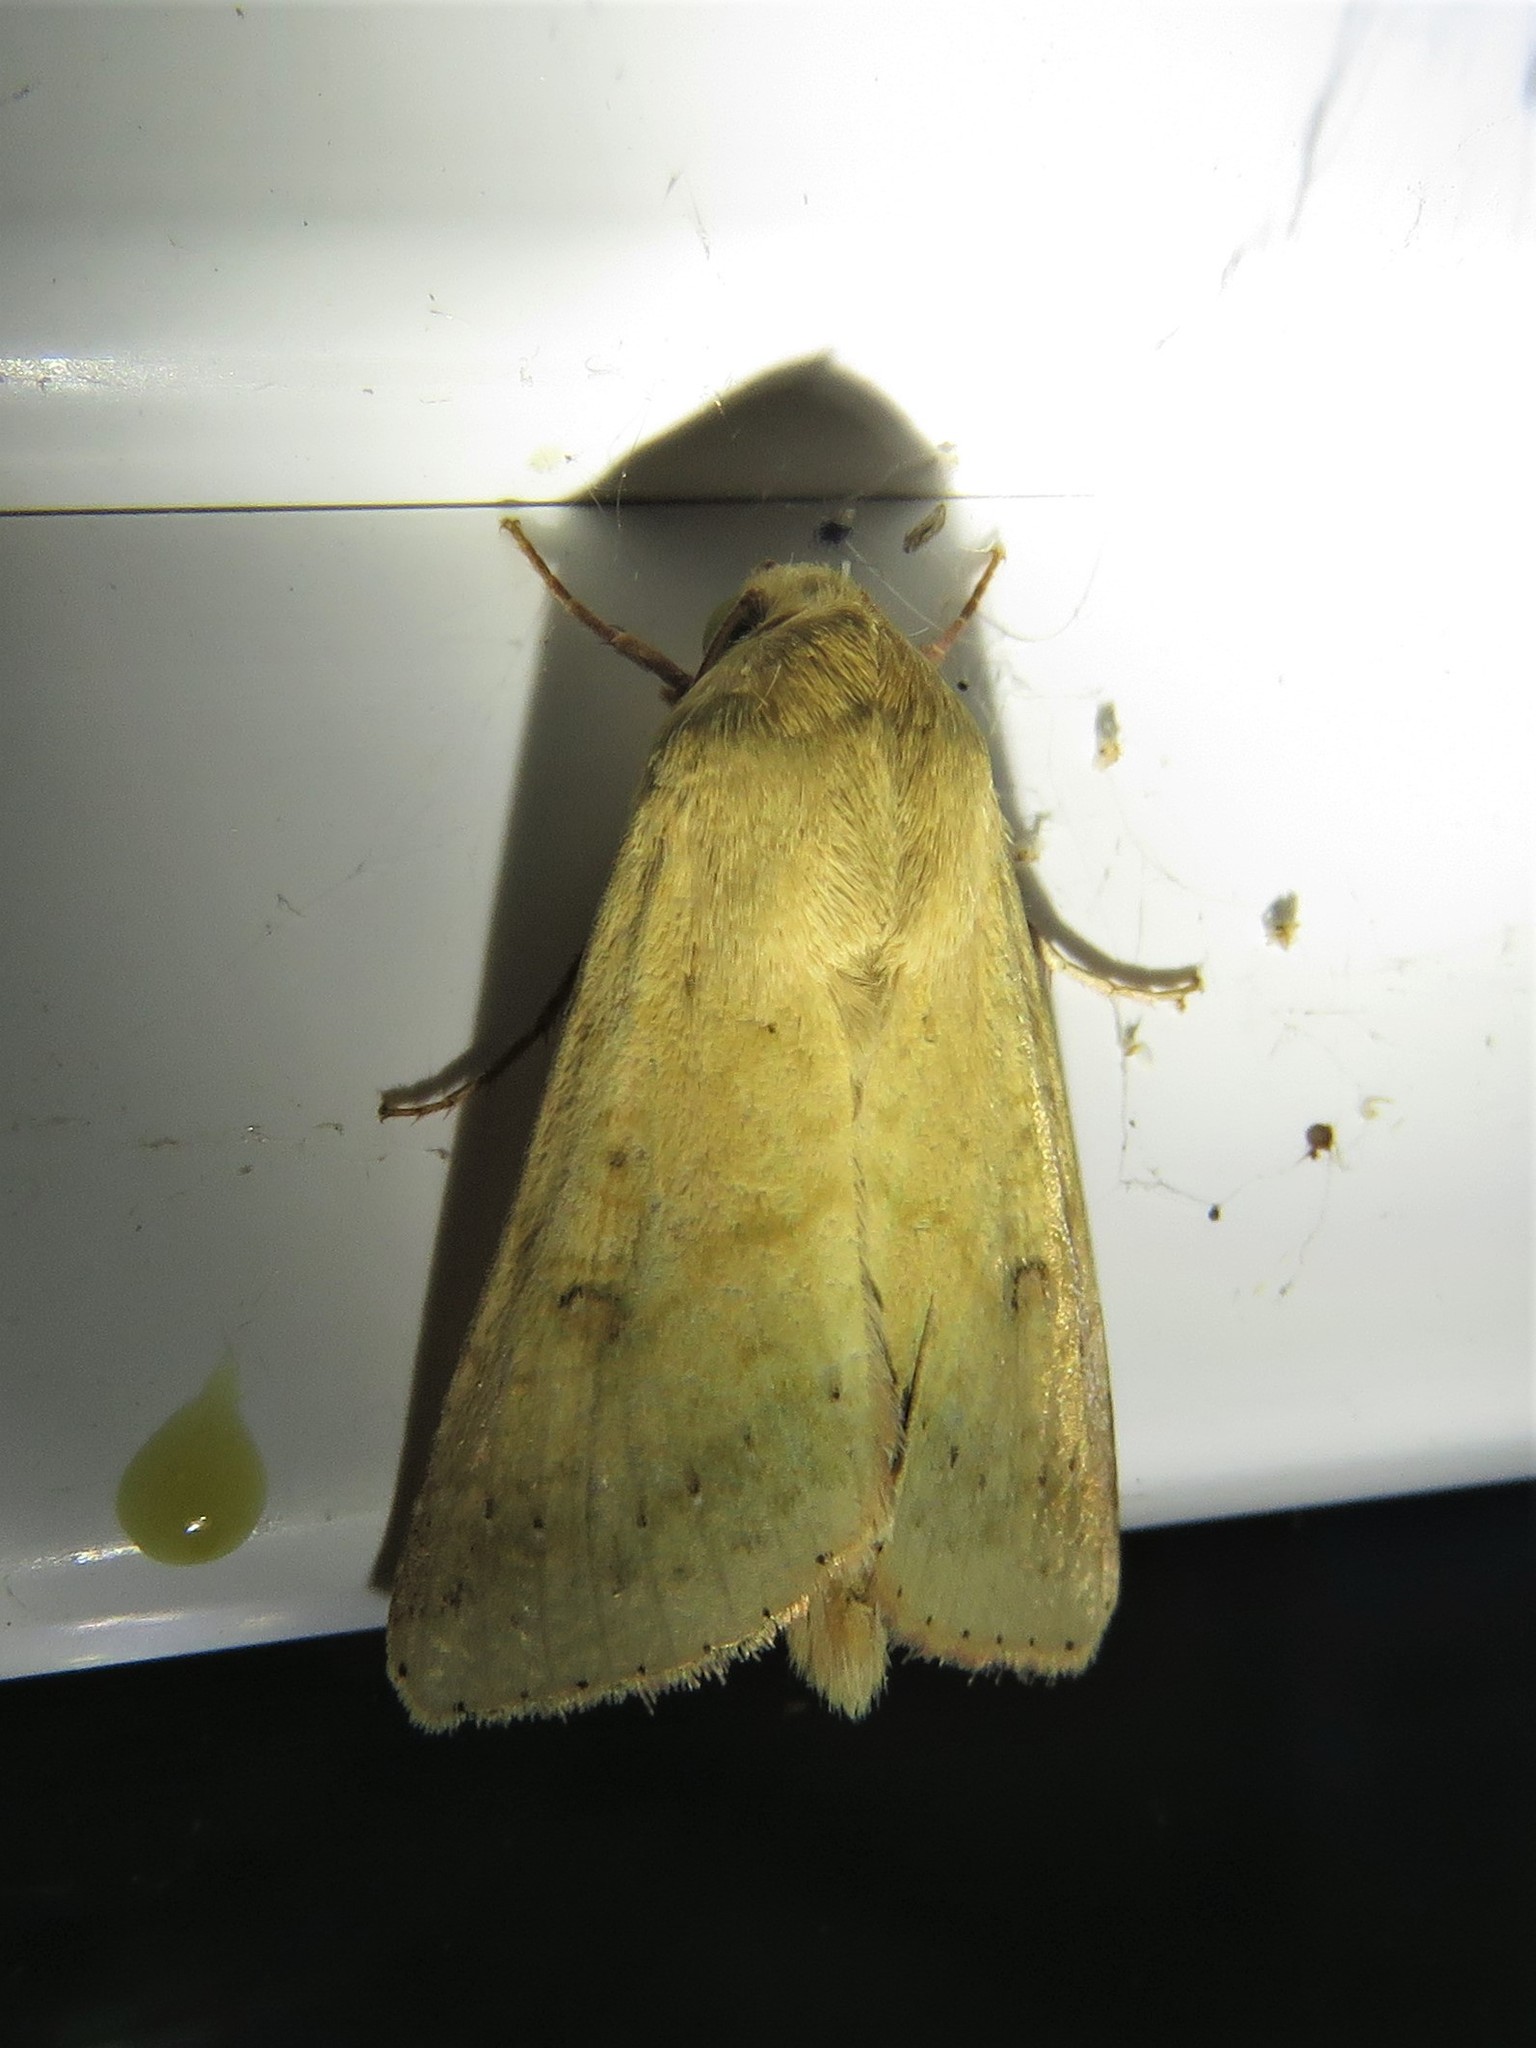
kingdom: Animalia
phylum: Arthropoda
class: Insecta
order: Lepidoptera
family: Noctuidae
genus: Helicoverpa
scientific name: Helicoverpa zea
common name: Bollworm
